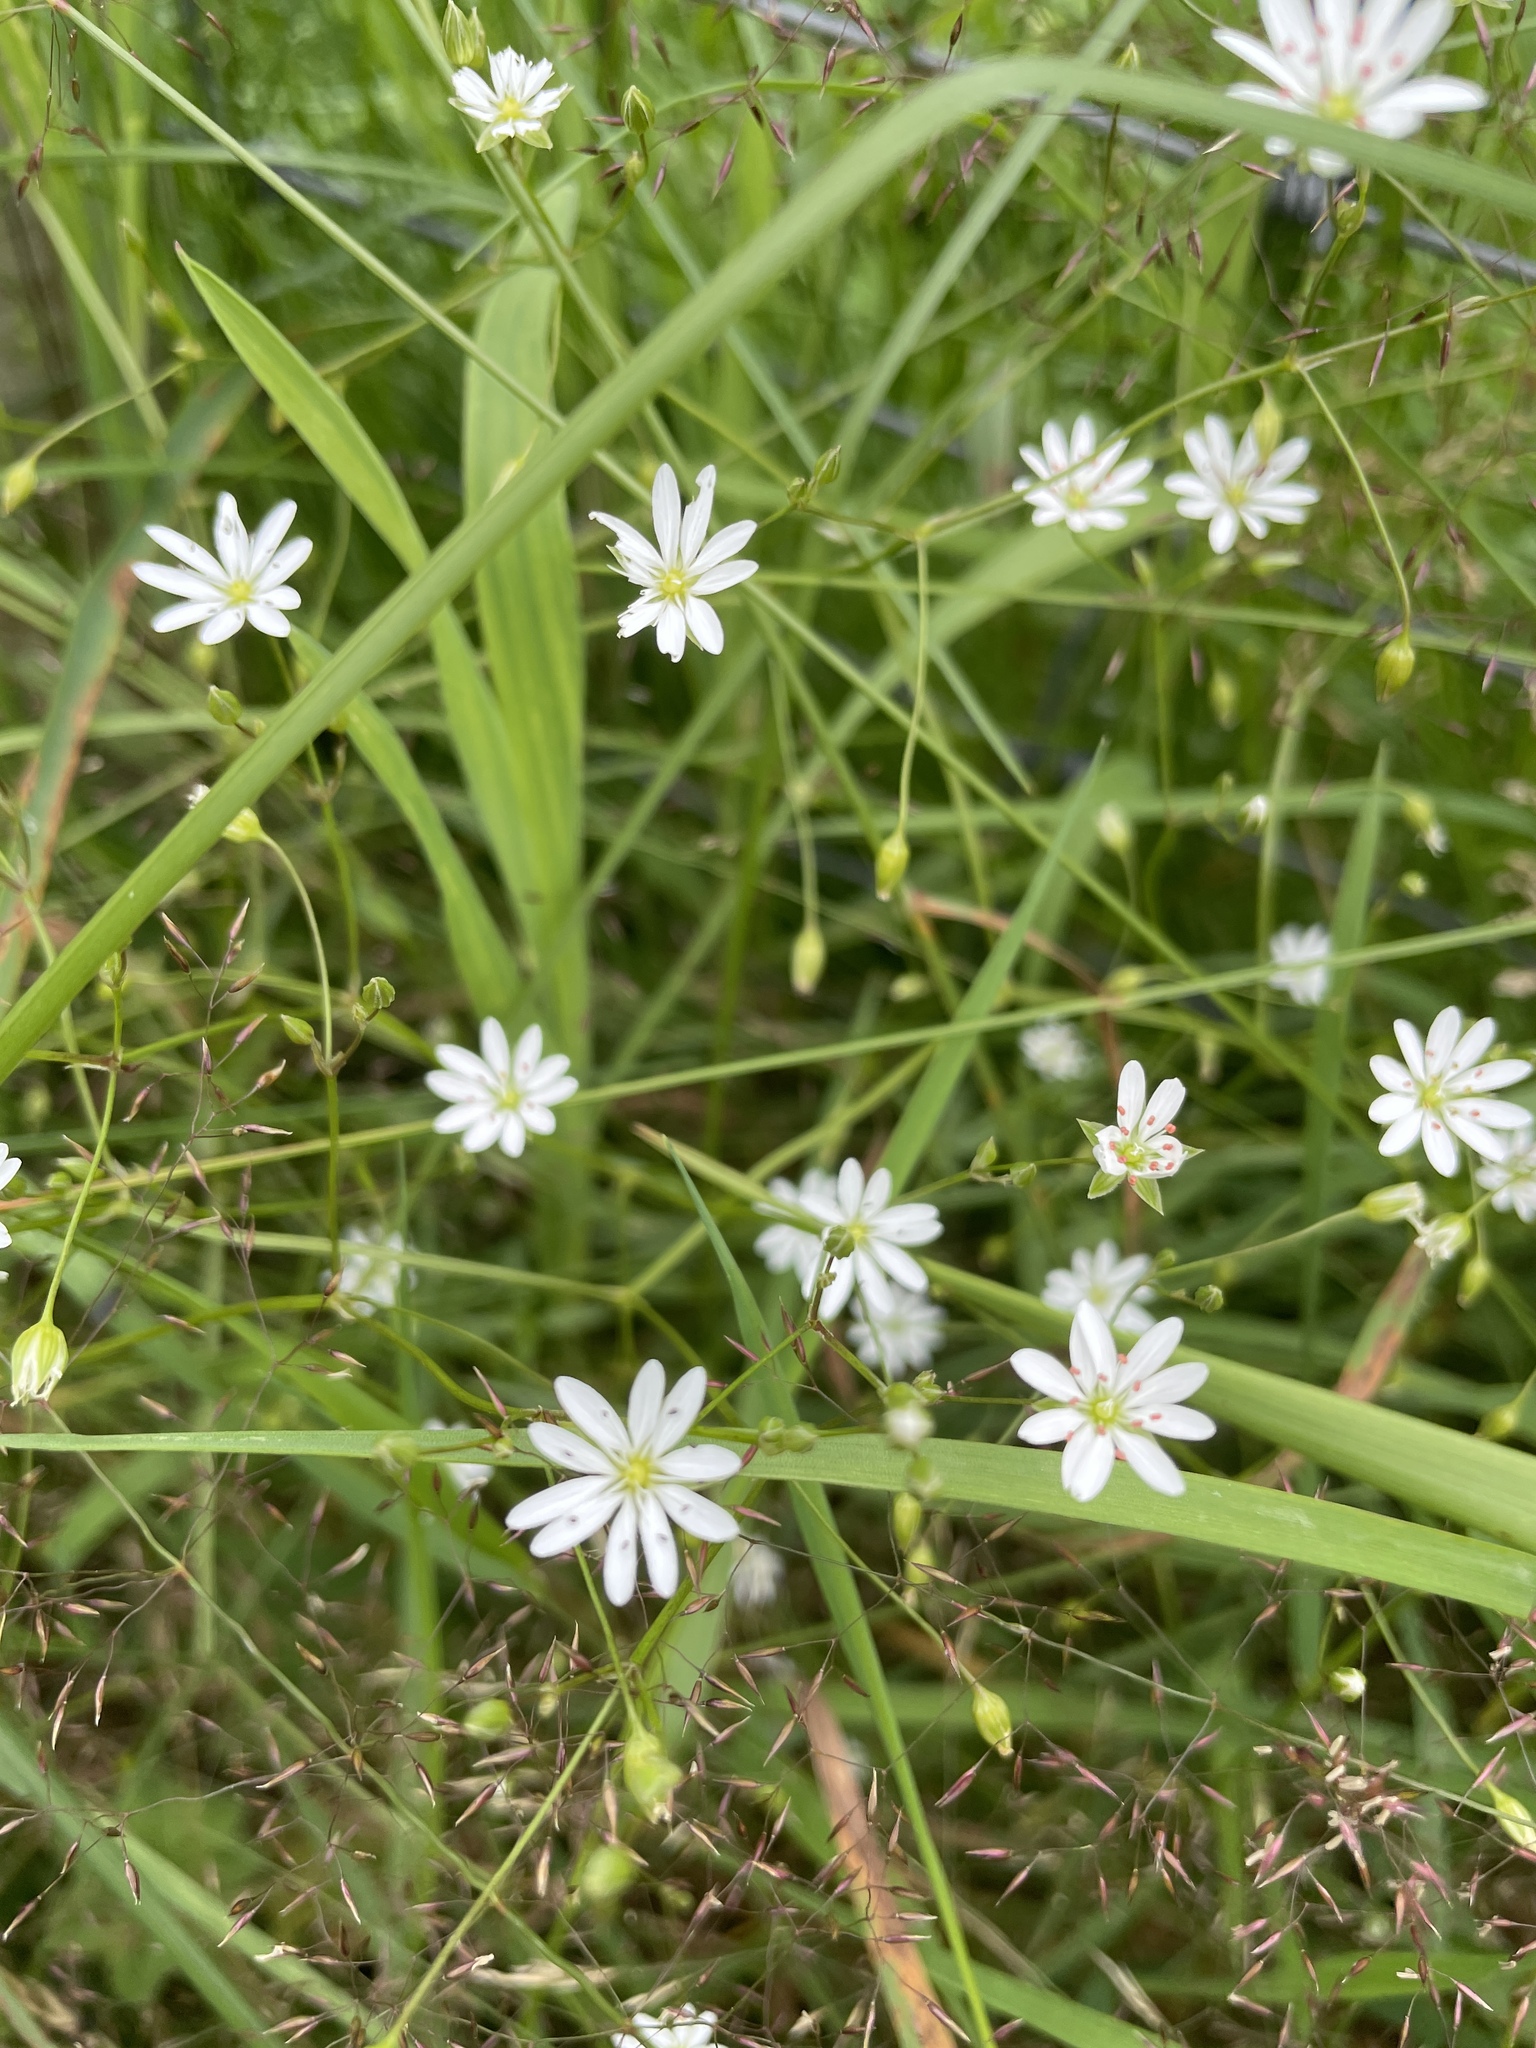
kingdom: Plantae
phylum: Tracheophyta
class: Magnoliopsida
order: Caryophyllales
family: Caryophyllaceae
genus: Stellaria
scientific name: Stellaria graminea
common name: Grass-like starwort
